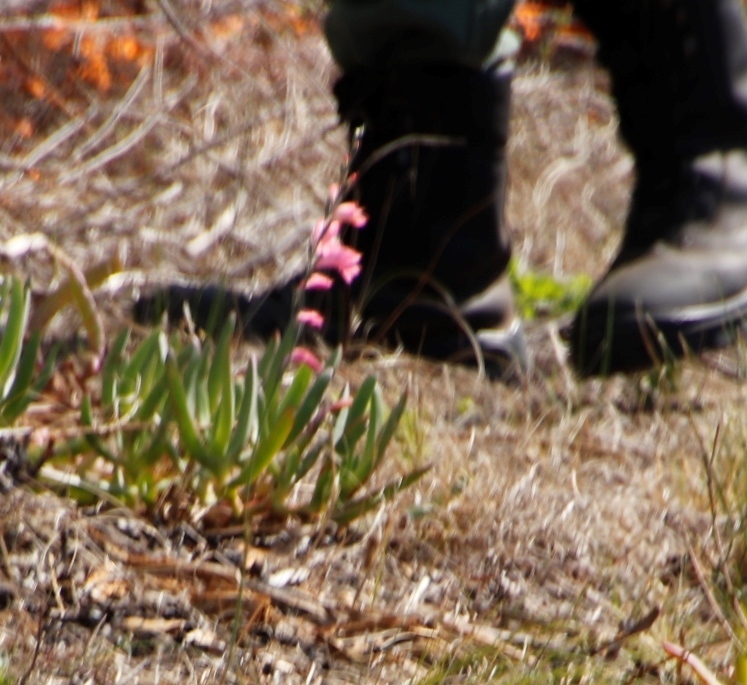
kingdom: Plantae
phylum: Tracheophyta
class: Liliopsida
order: Asparagales
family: Iridaceae
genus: Gladiolus
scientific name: Gladiolus brevifolius
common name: March pypie
